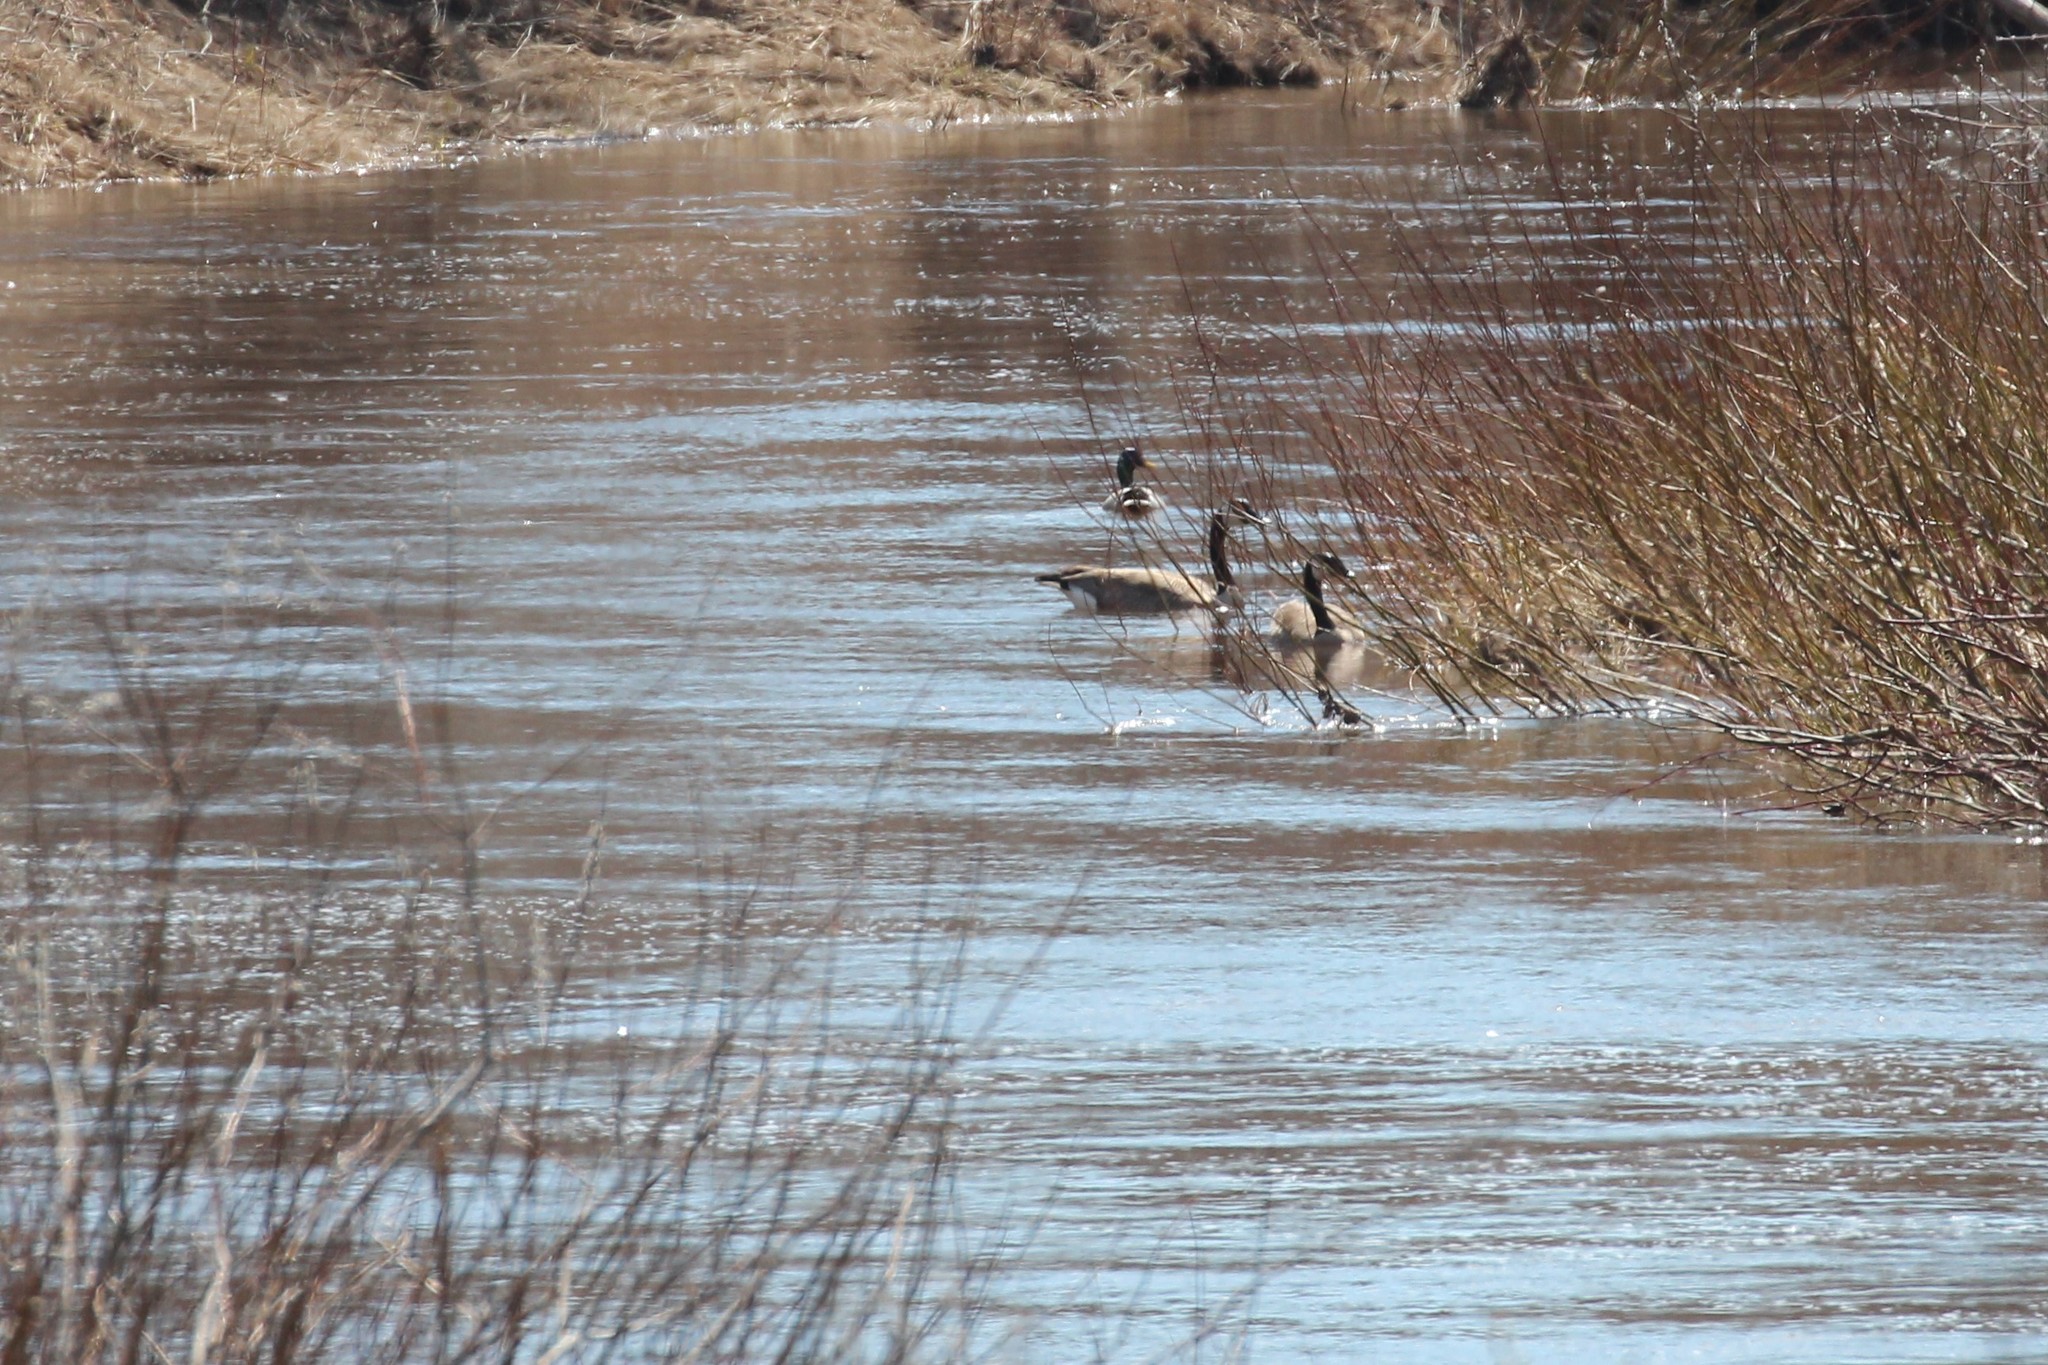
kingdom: Animalia
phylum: Chordata
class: Aves
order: Anseriformes
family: Anatidae
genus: Branta
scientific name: Branta canadensis
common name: Canada goose
